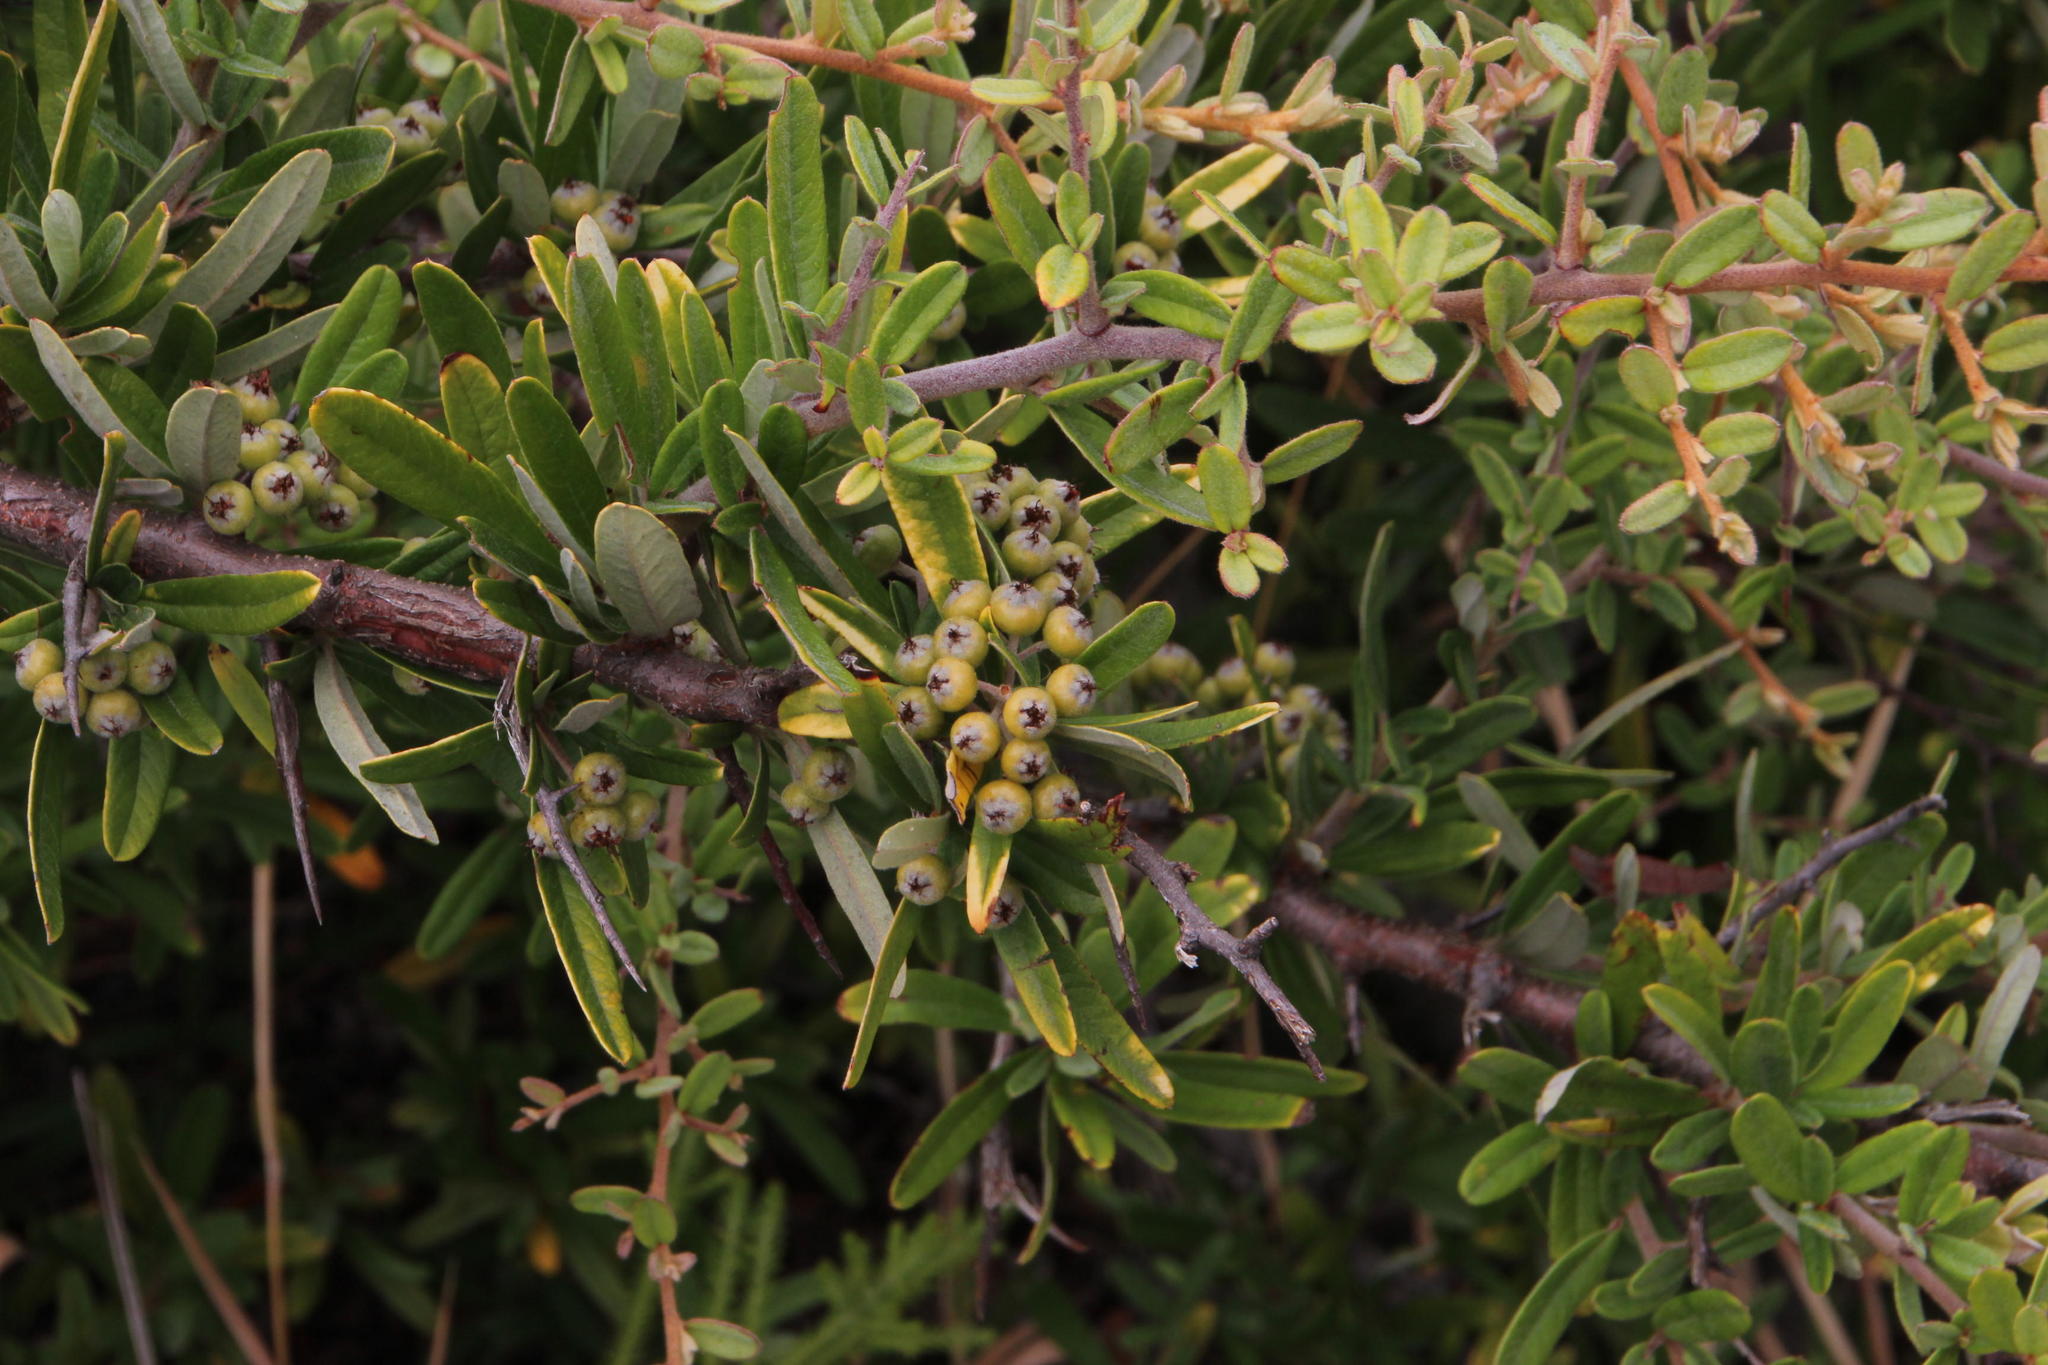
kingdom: Plantae
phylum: Tracheophyta
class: Magnoliopsida
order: Rosales
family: Rosaceae
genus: Pyracantha
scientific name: Pyracantha angustifolia
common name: Narrowleaf firethorn
